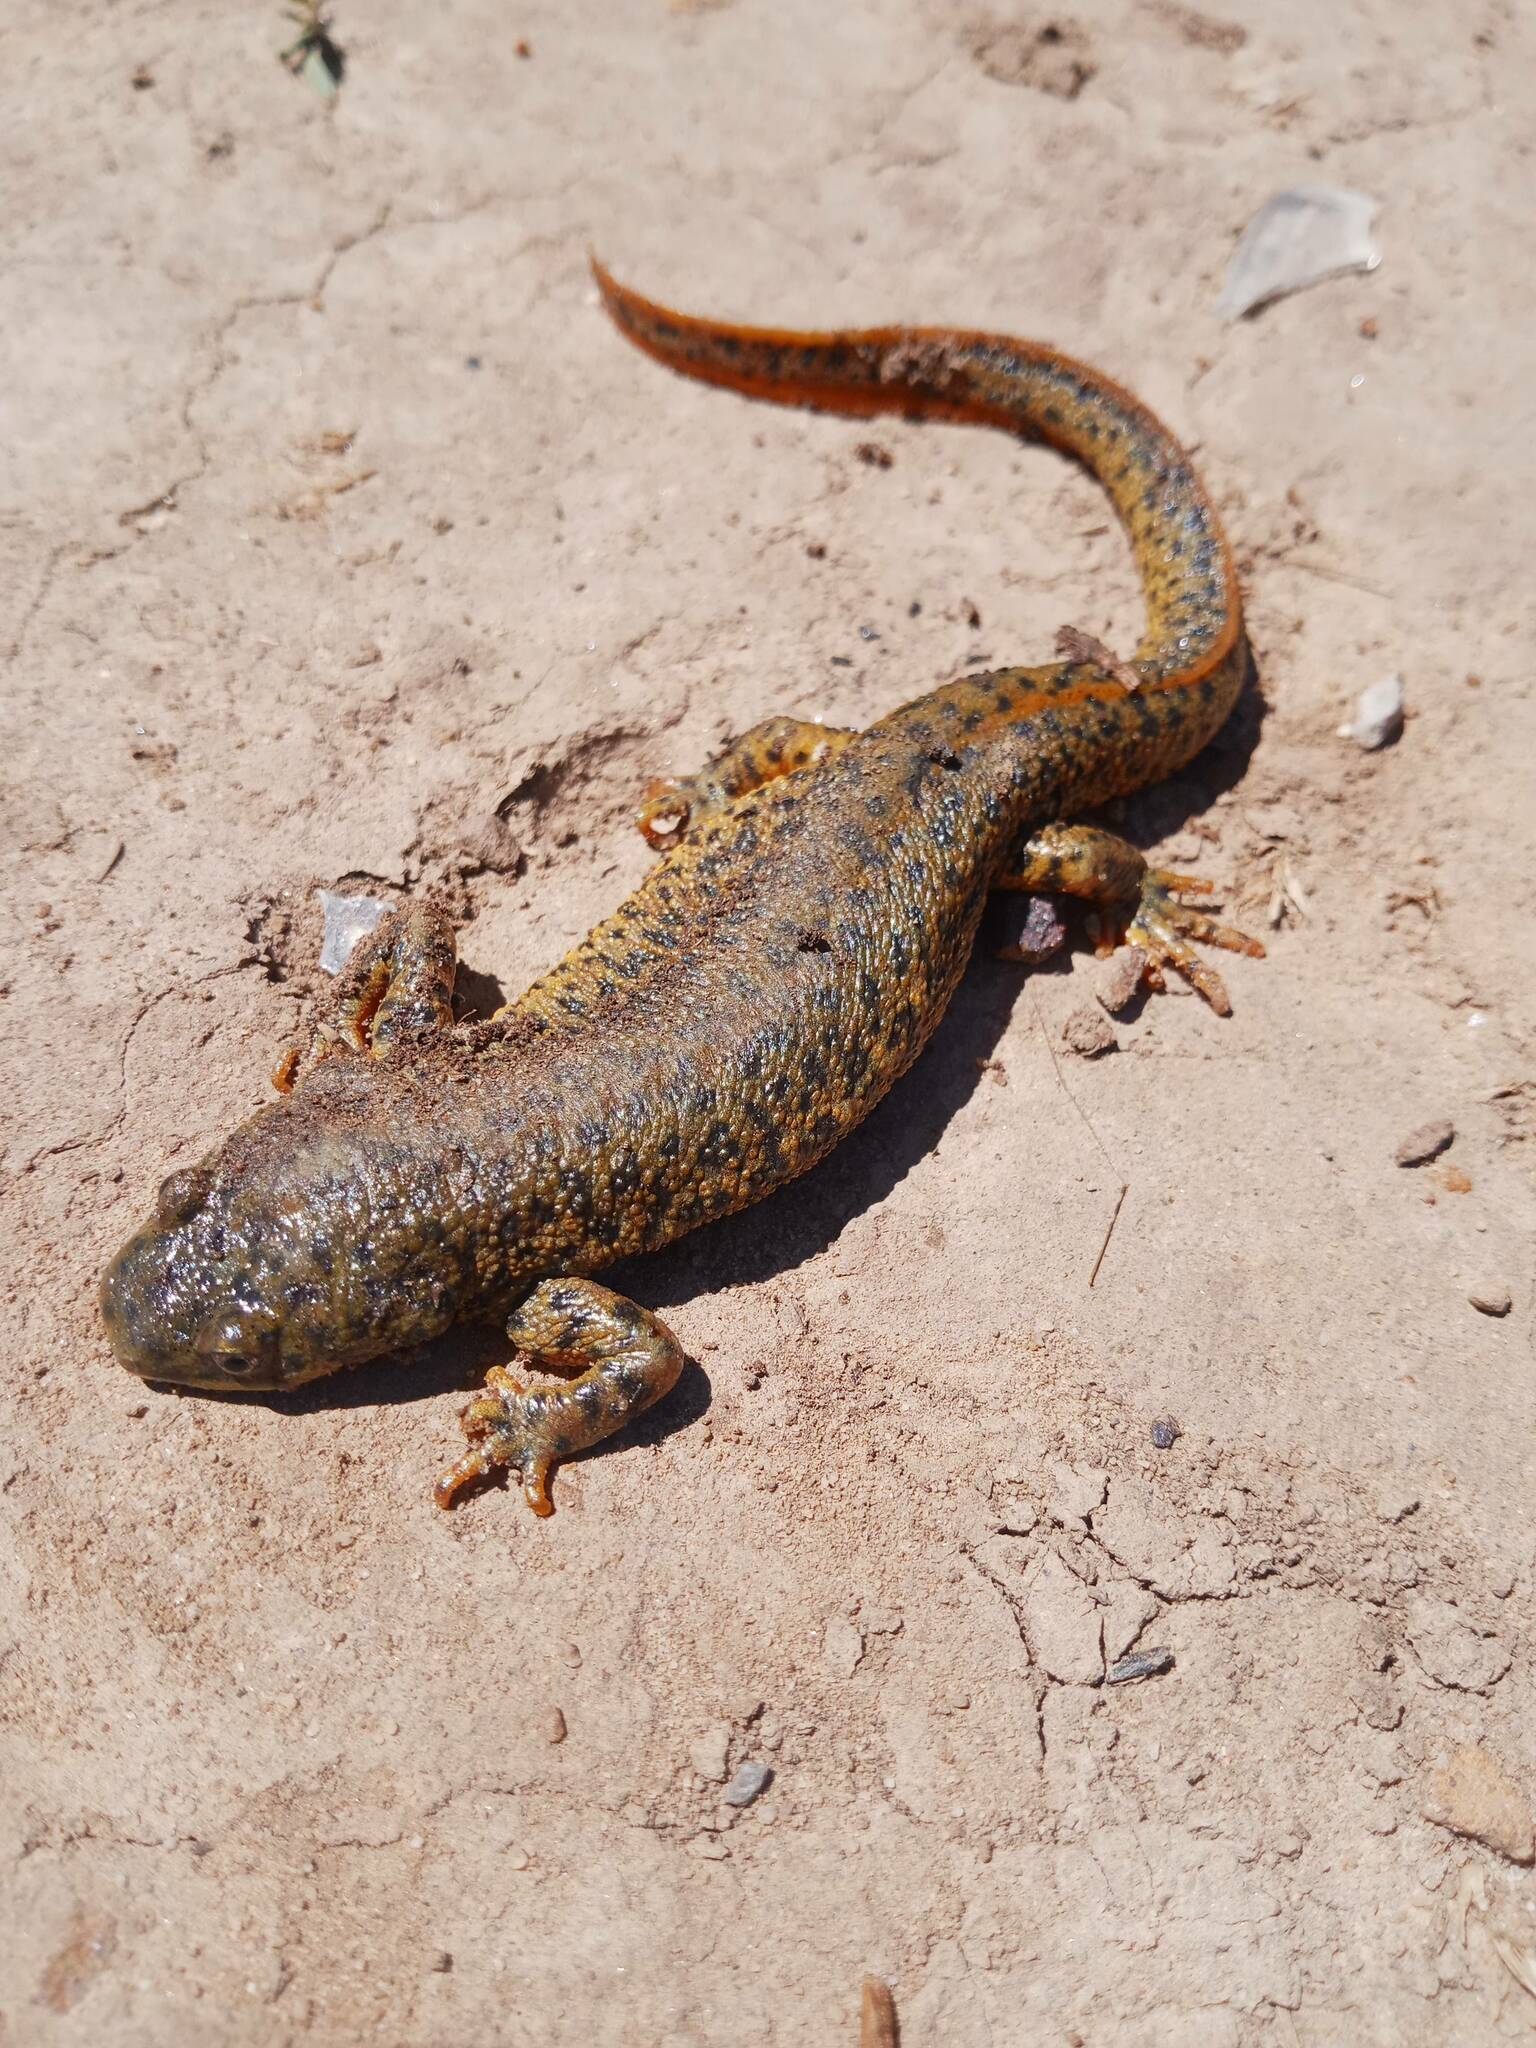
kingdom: Animalia
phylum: Chordata
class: Amphibia
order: Caudata
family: Salamandridae
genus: Pleurodeles
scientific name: Pleurodeles nebulosus
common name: Algerian ribbed newt
